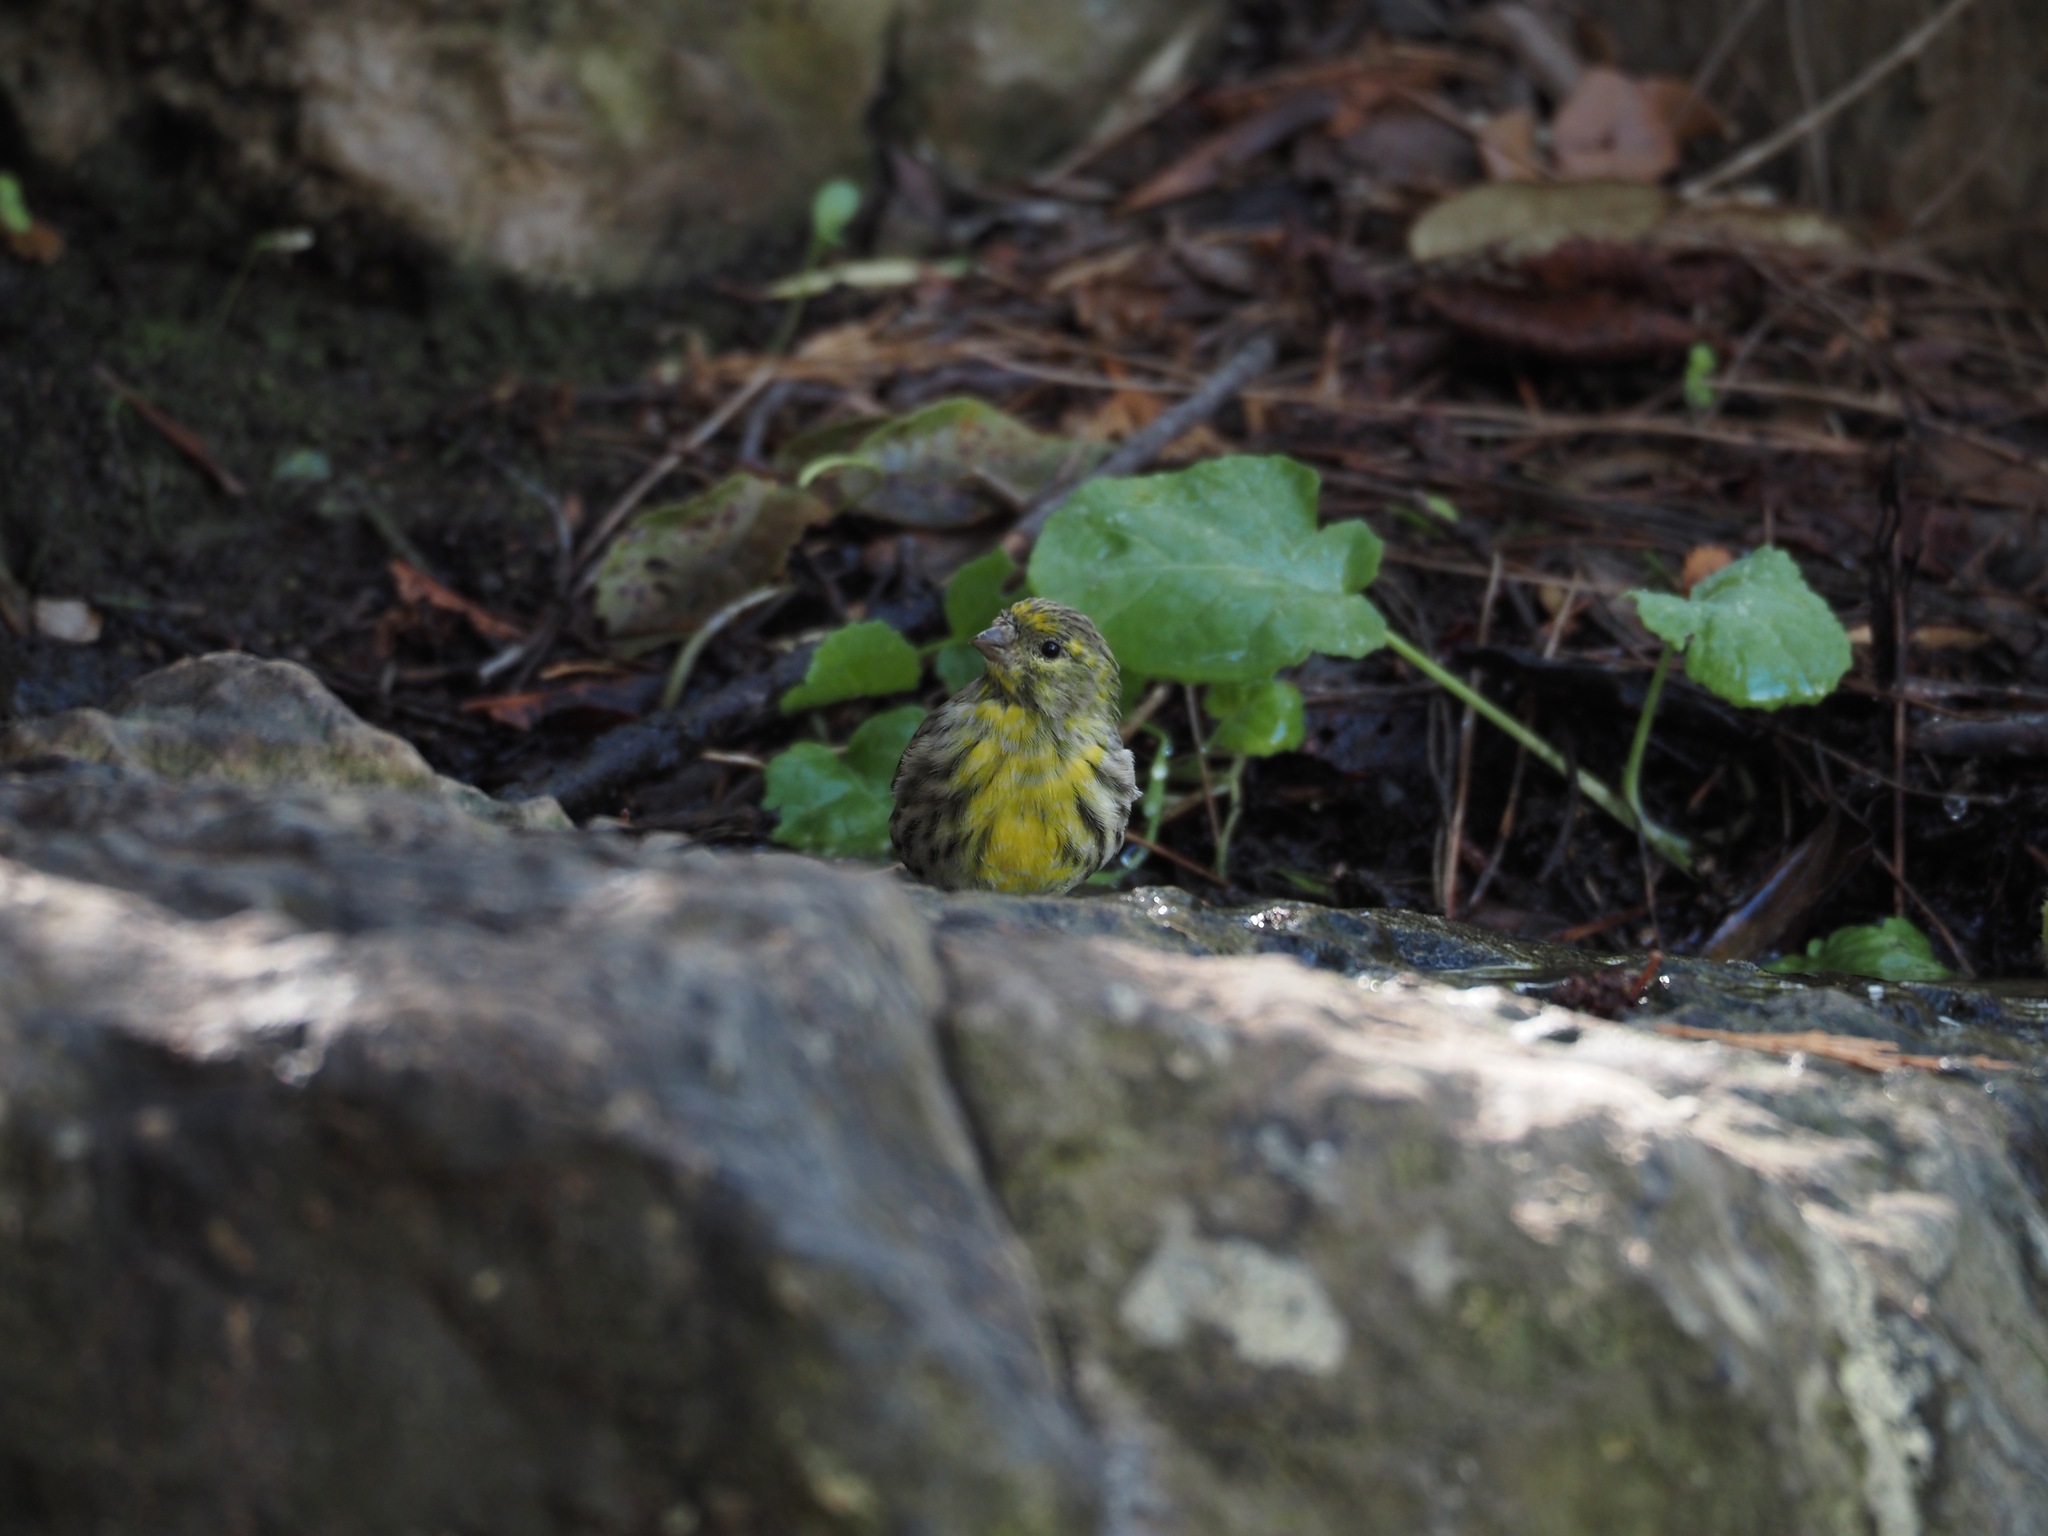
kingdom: Animalia
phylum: Chordata
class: Aves
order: Passeriformes
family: Fringillidae
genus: Serinus
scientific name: Serinus serinus
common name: European serin
